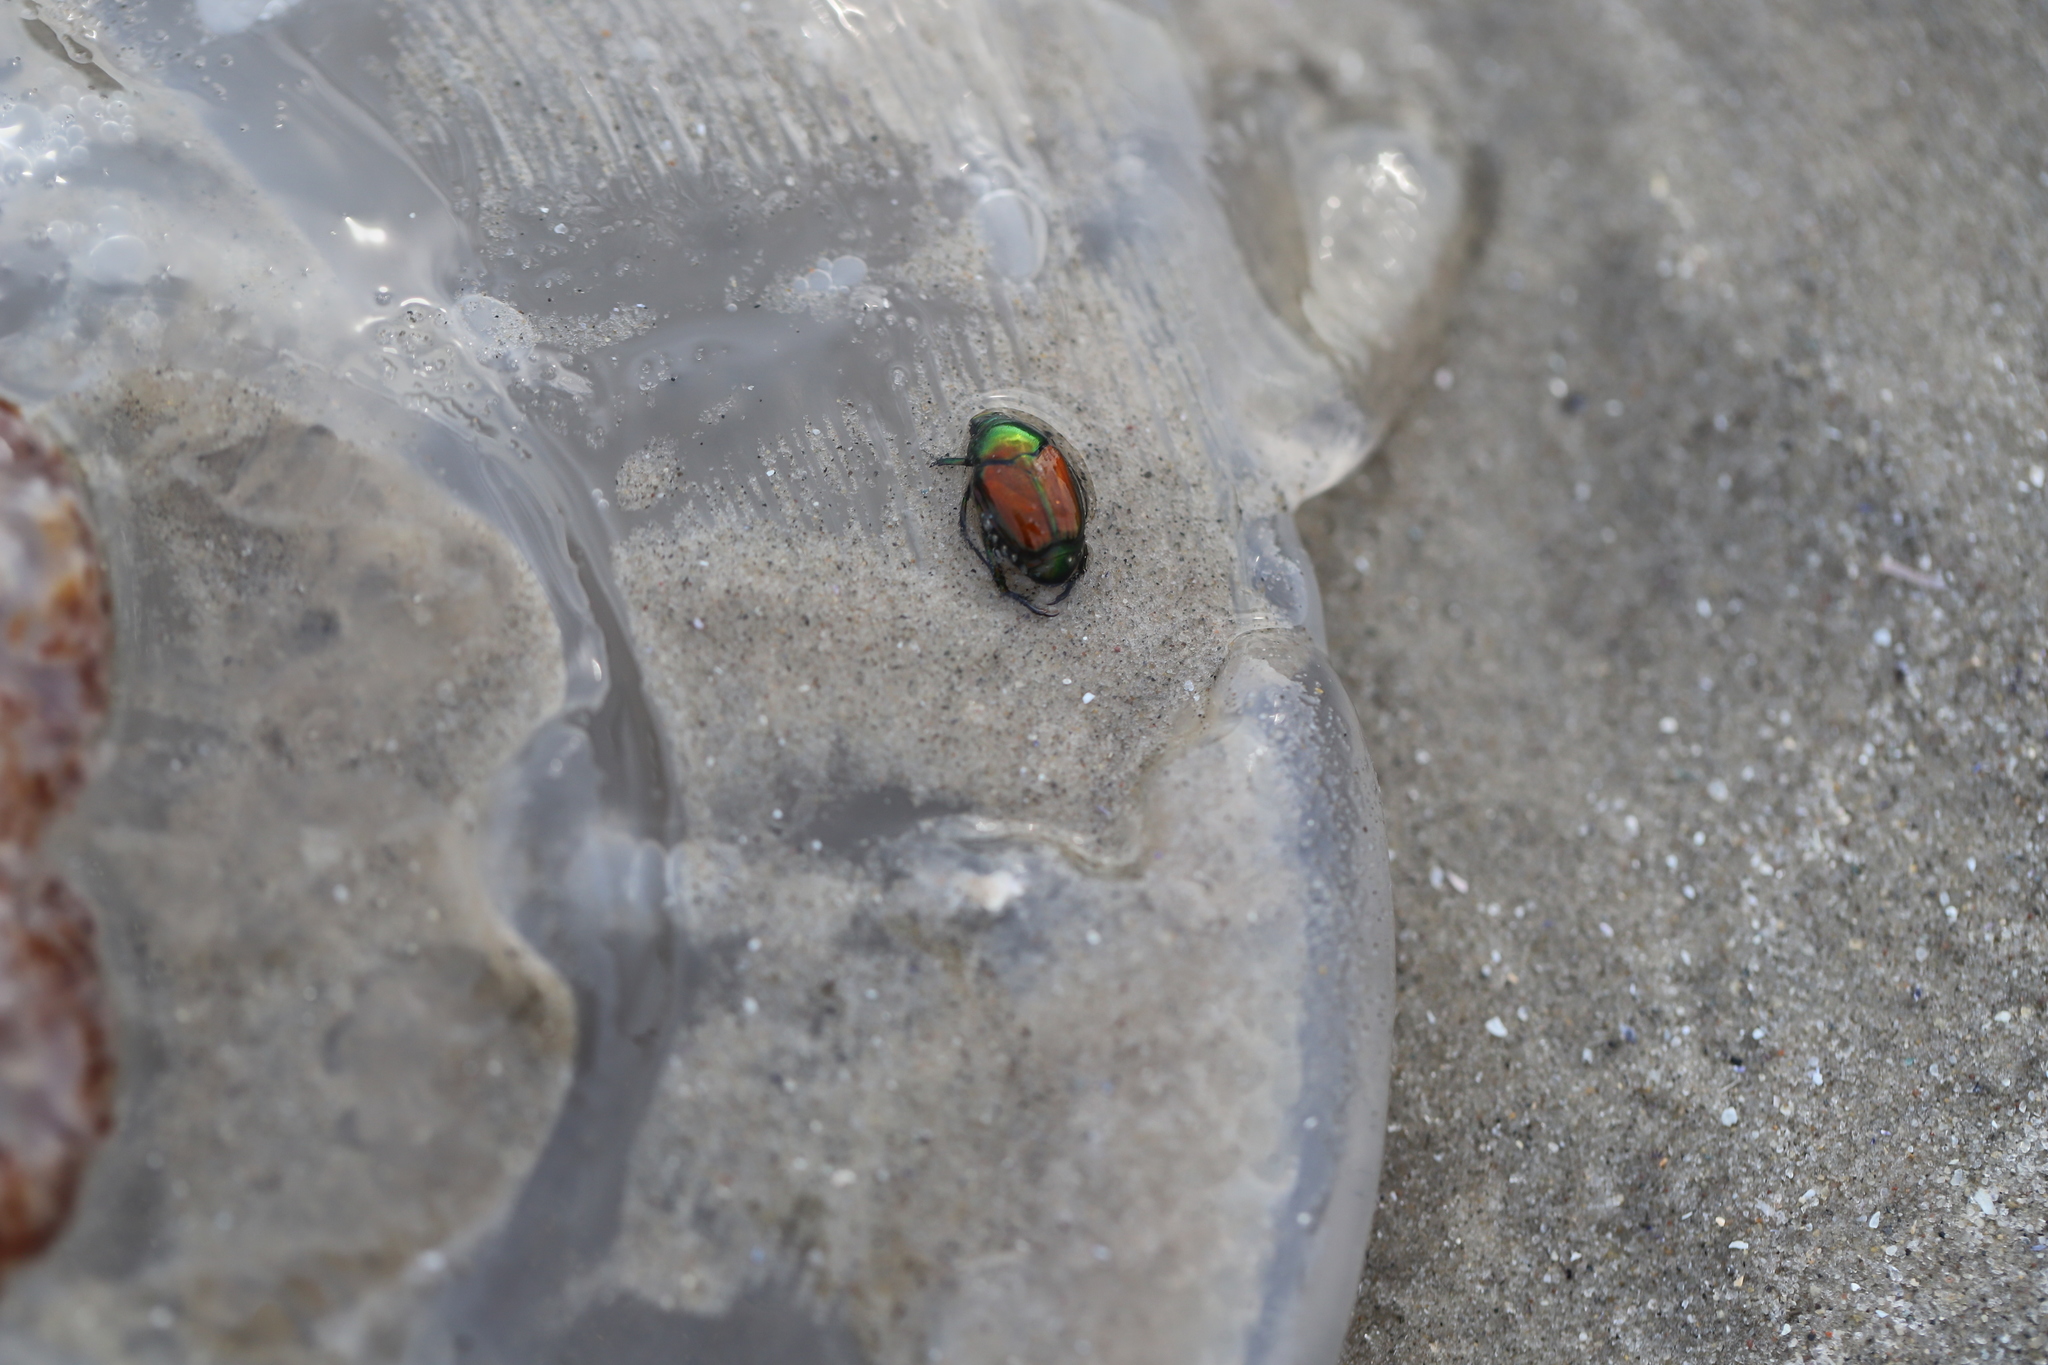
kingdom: Animalia
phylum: Arthropoda
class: Insecta
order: Coleoptera
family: Scarabaeidae
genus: Popillia
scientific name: Popillia japonica
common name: Japanese beetle
